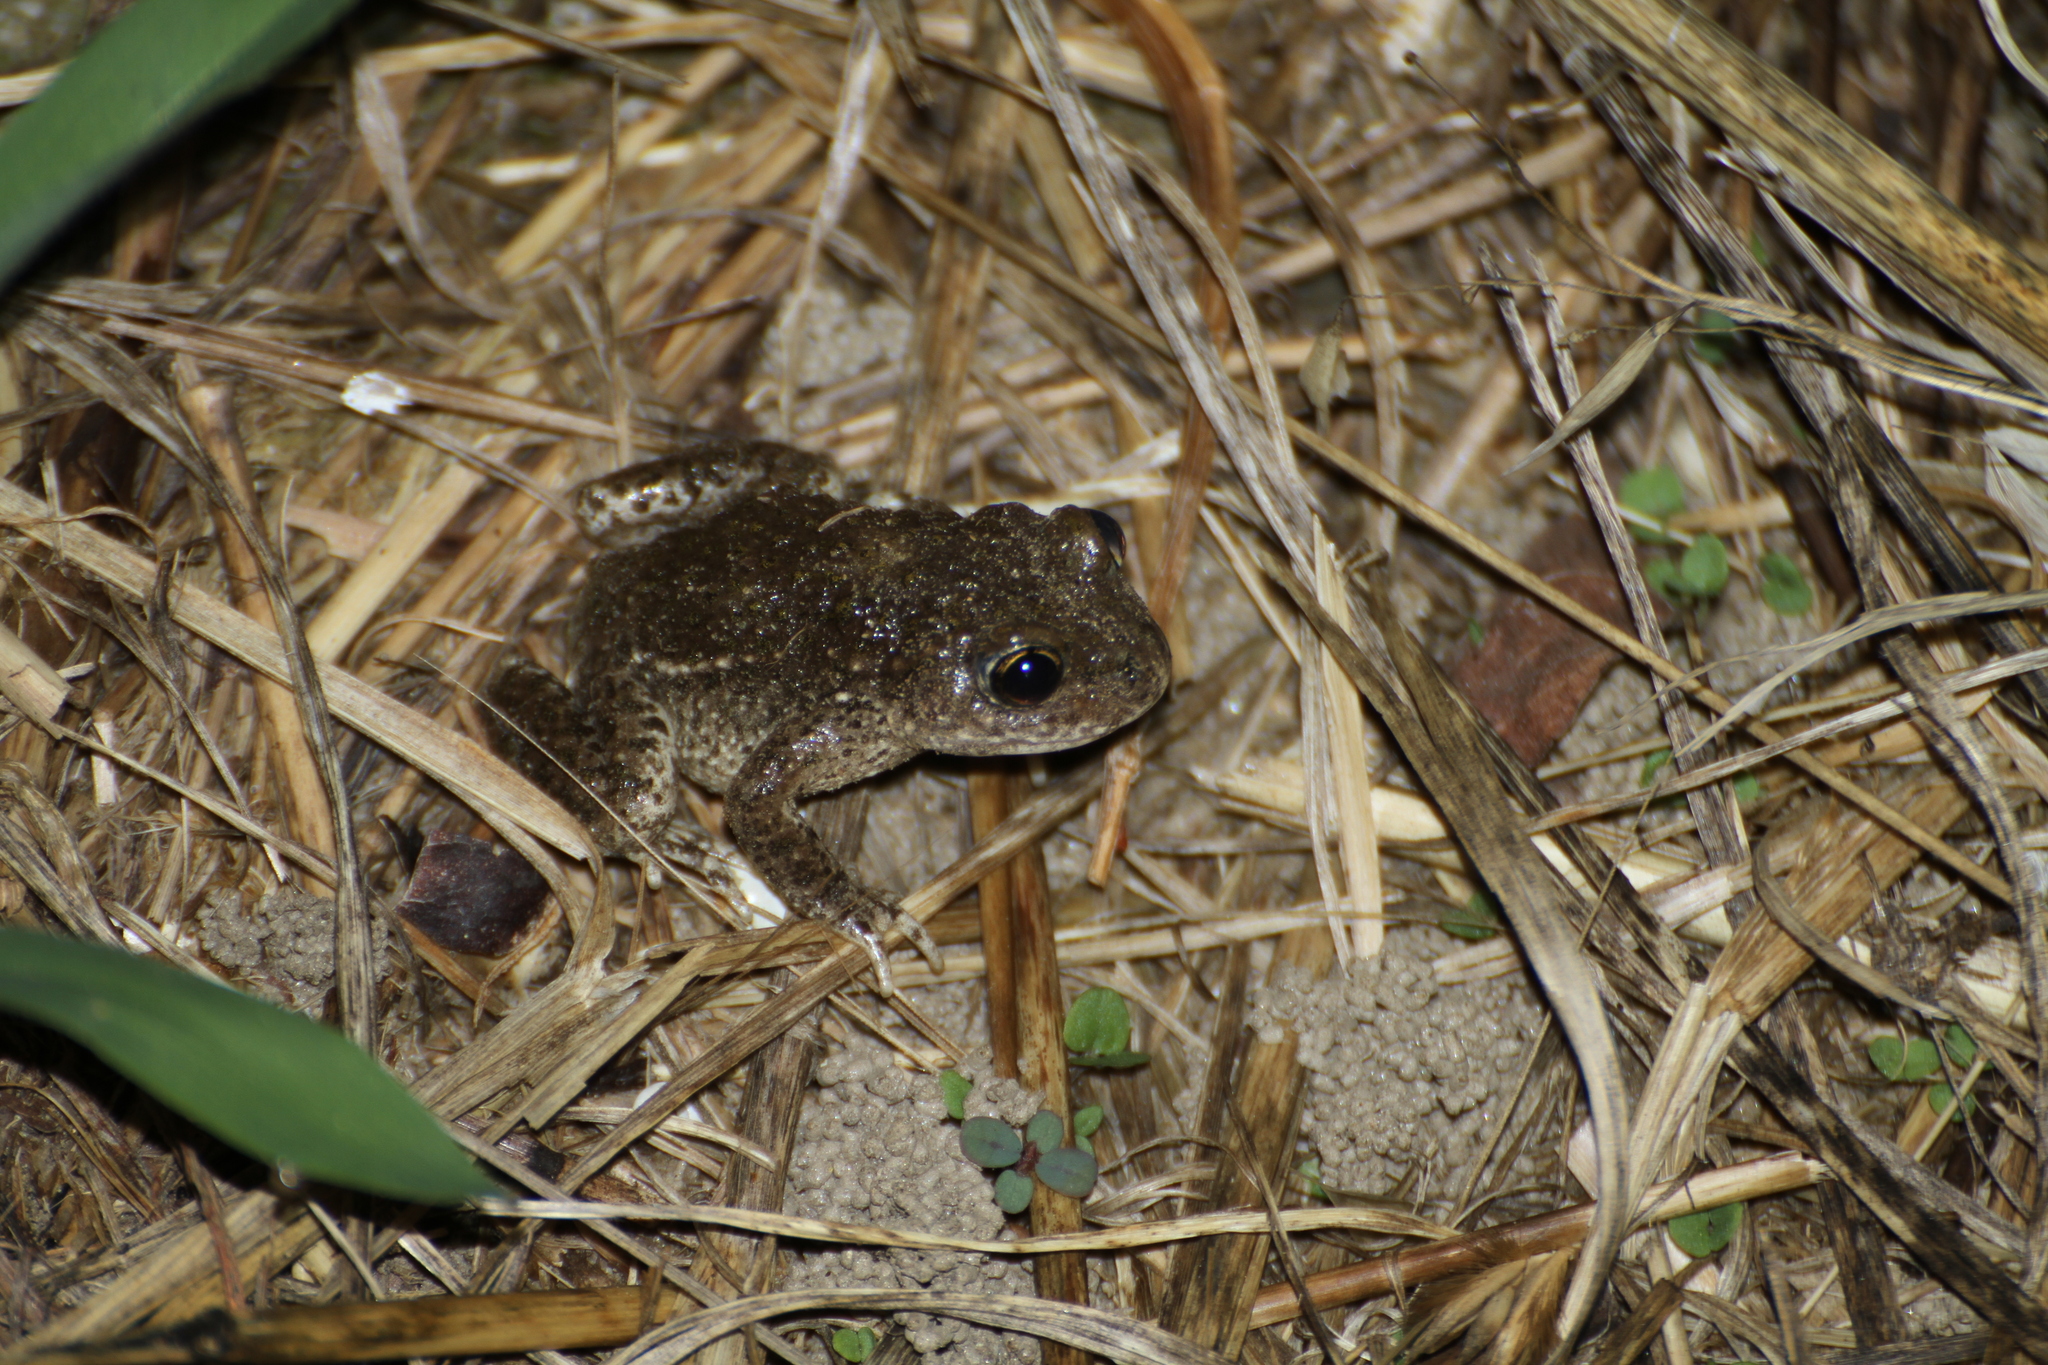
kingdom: Animalia
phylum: Chordata
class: Amphibia
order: Anura
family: Alytidae
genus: Alytes
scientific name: Alytes obstetricans
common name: Midwife toad
